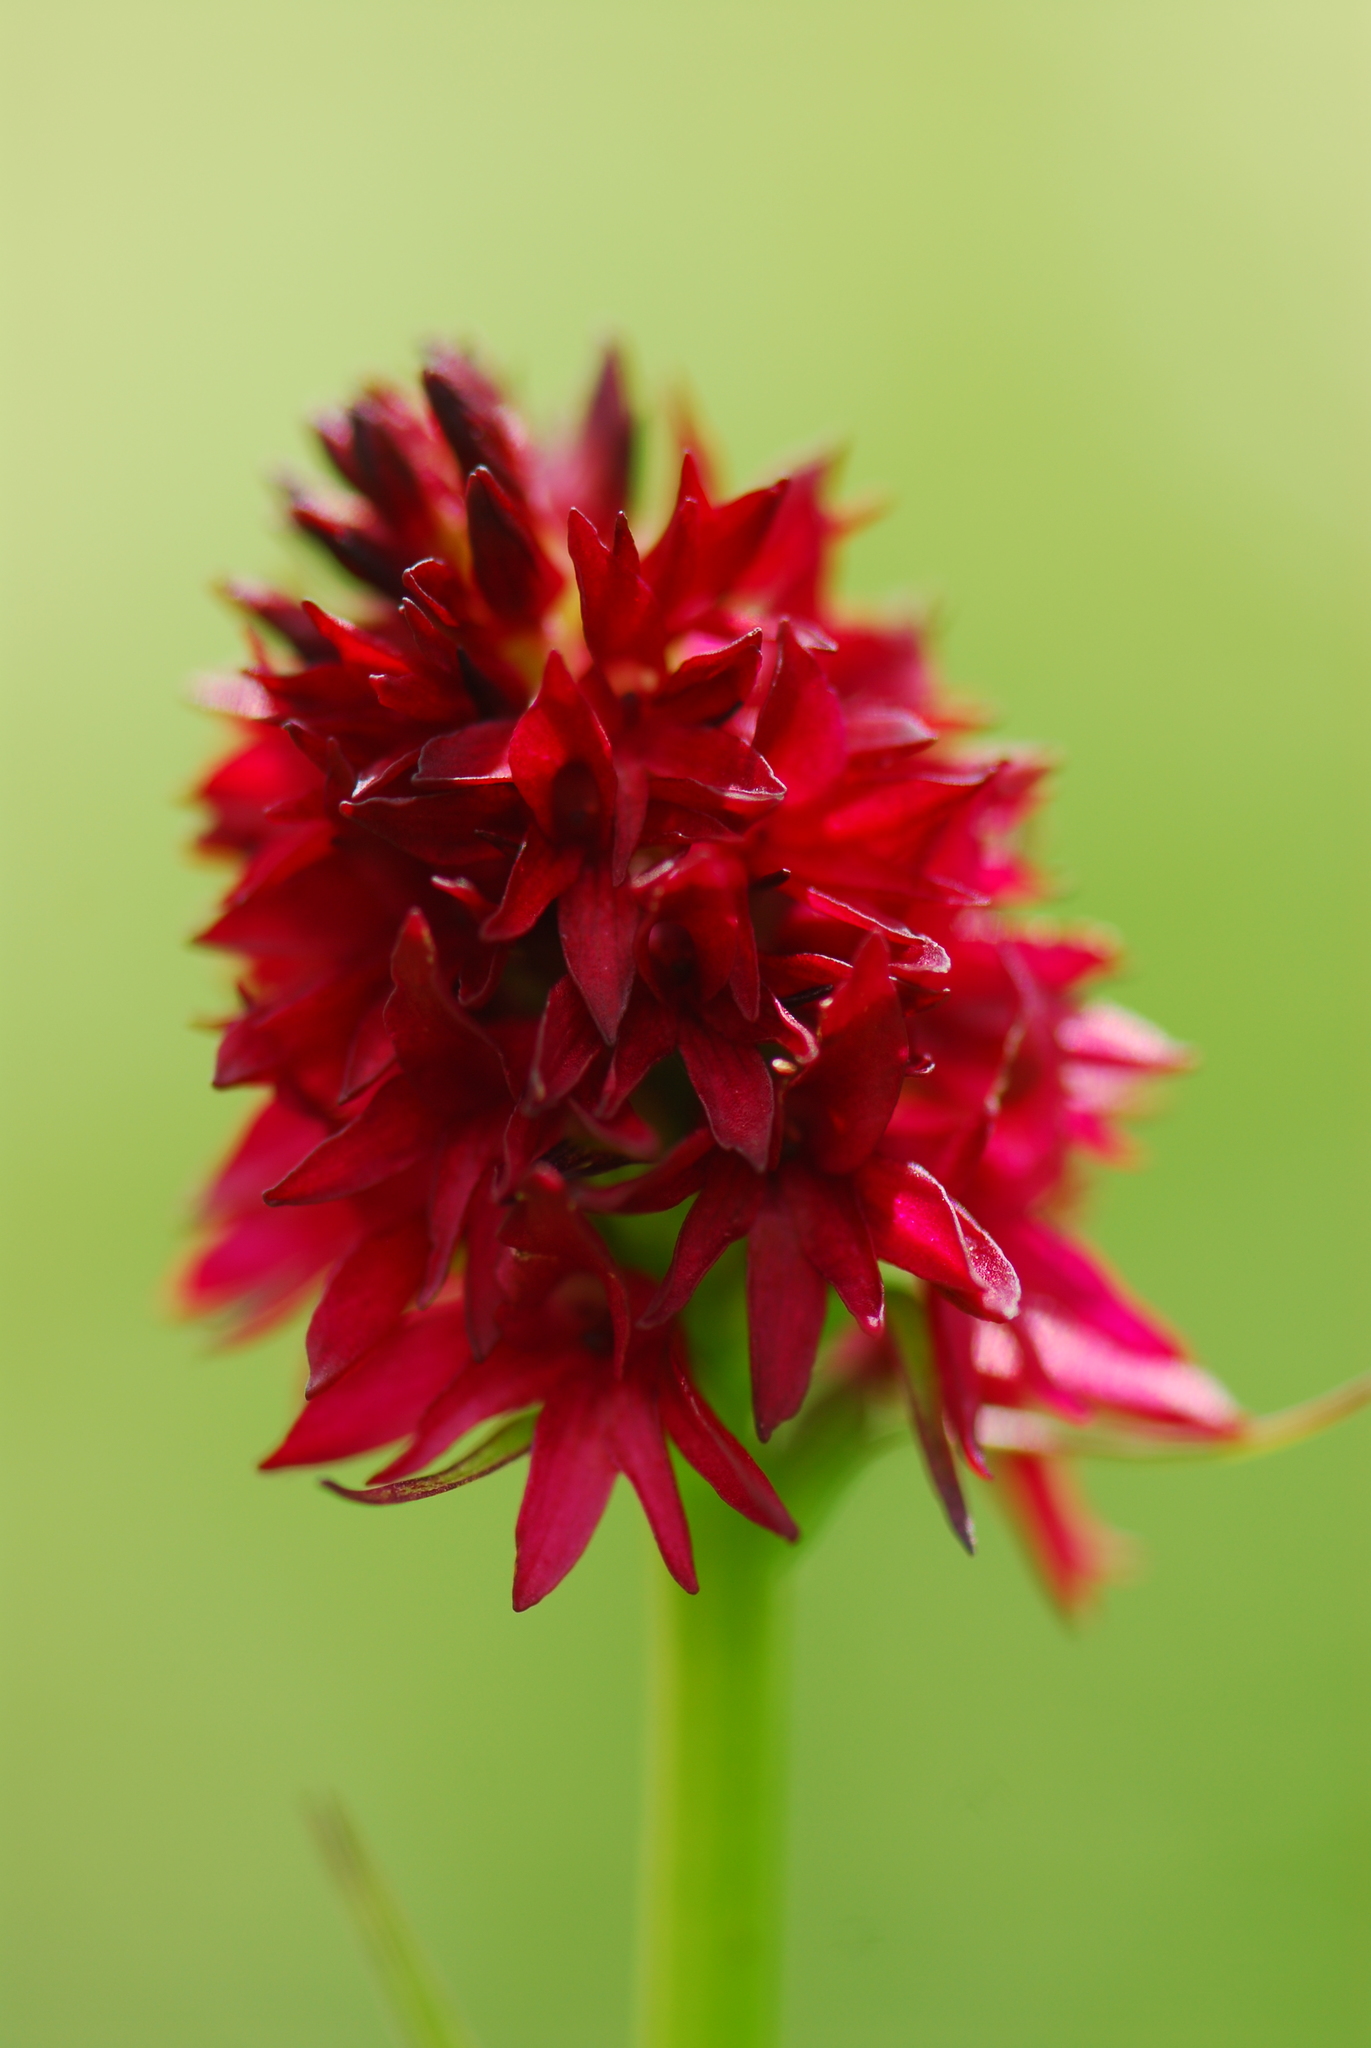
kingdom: Plantae
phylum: Tracheophyta
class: Liliopsida
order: Asparagales
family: Orchidaceae
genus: Gymnadenia
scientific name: Gymnadenia rhellicani
